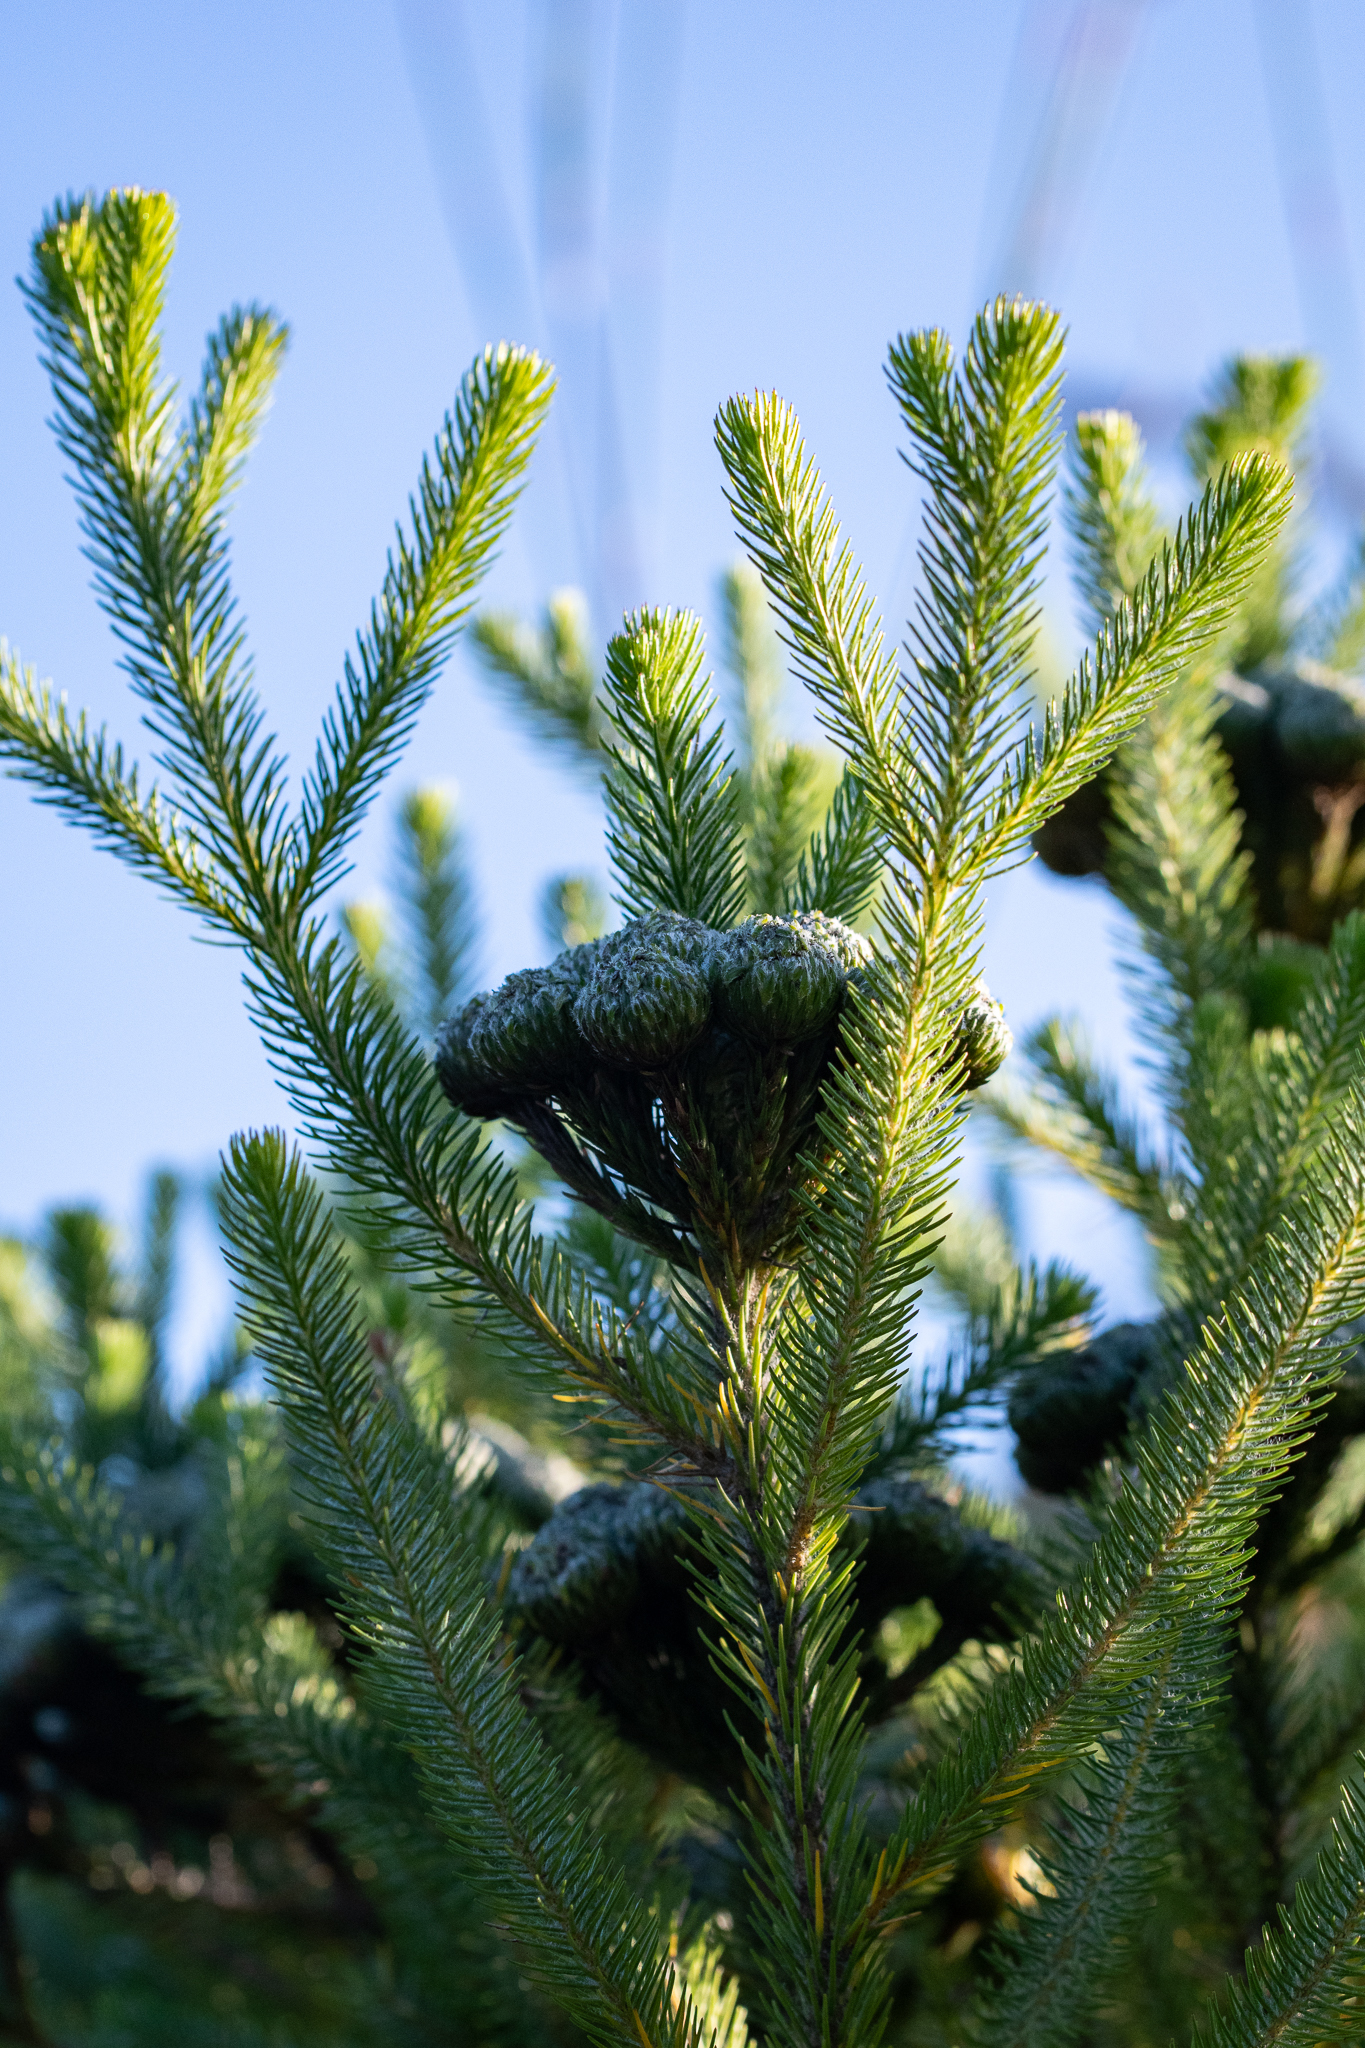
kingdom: Plantae
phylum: Tracheophyta
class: Magnoliopsida
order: Bruniales
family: Bruniaceae
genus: Berzelia
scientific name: Berzelia albiflora
